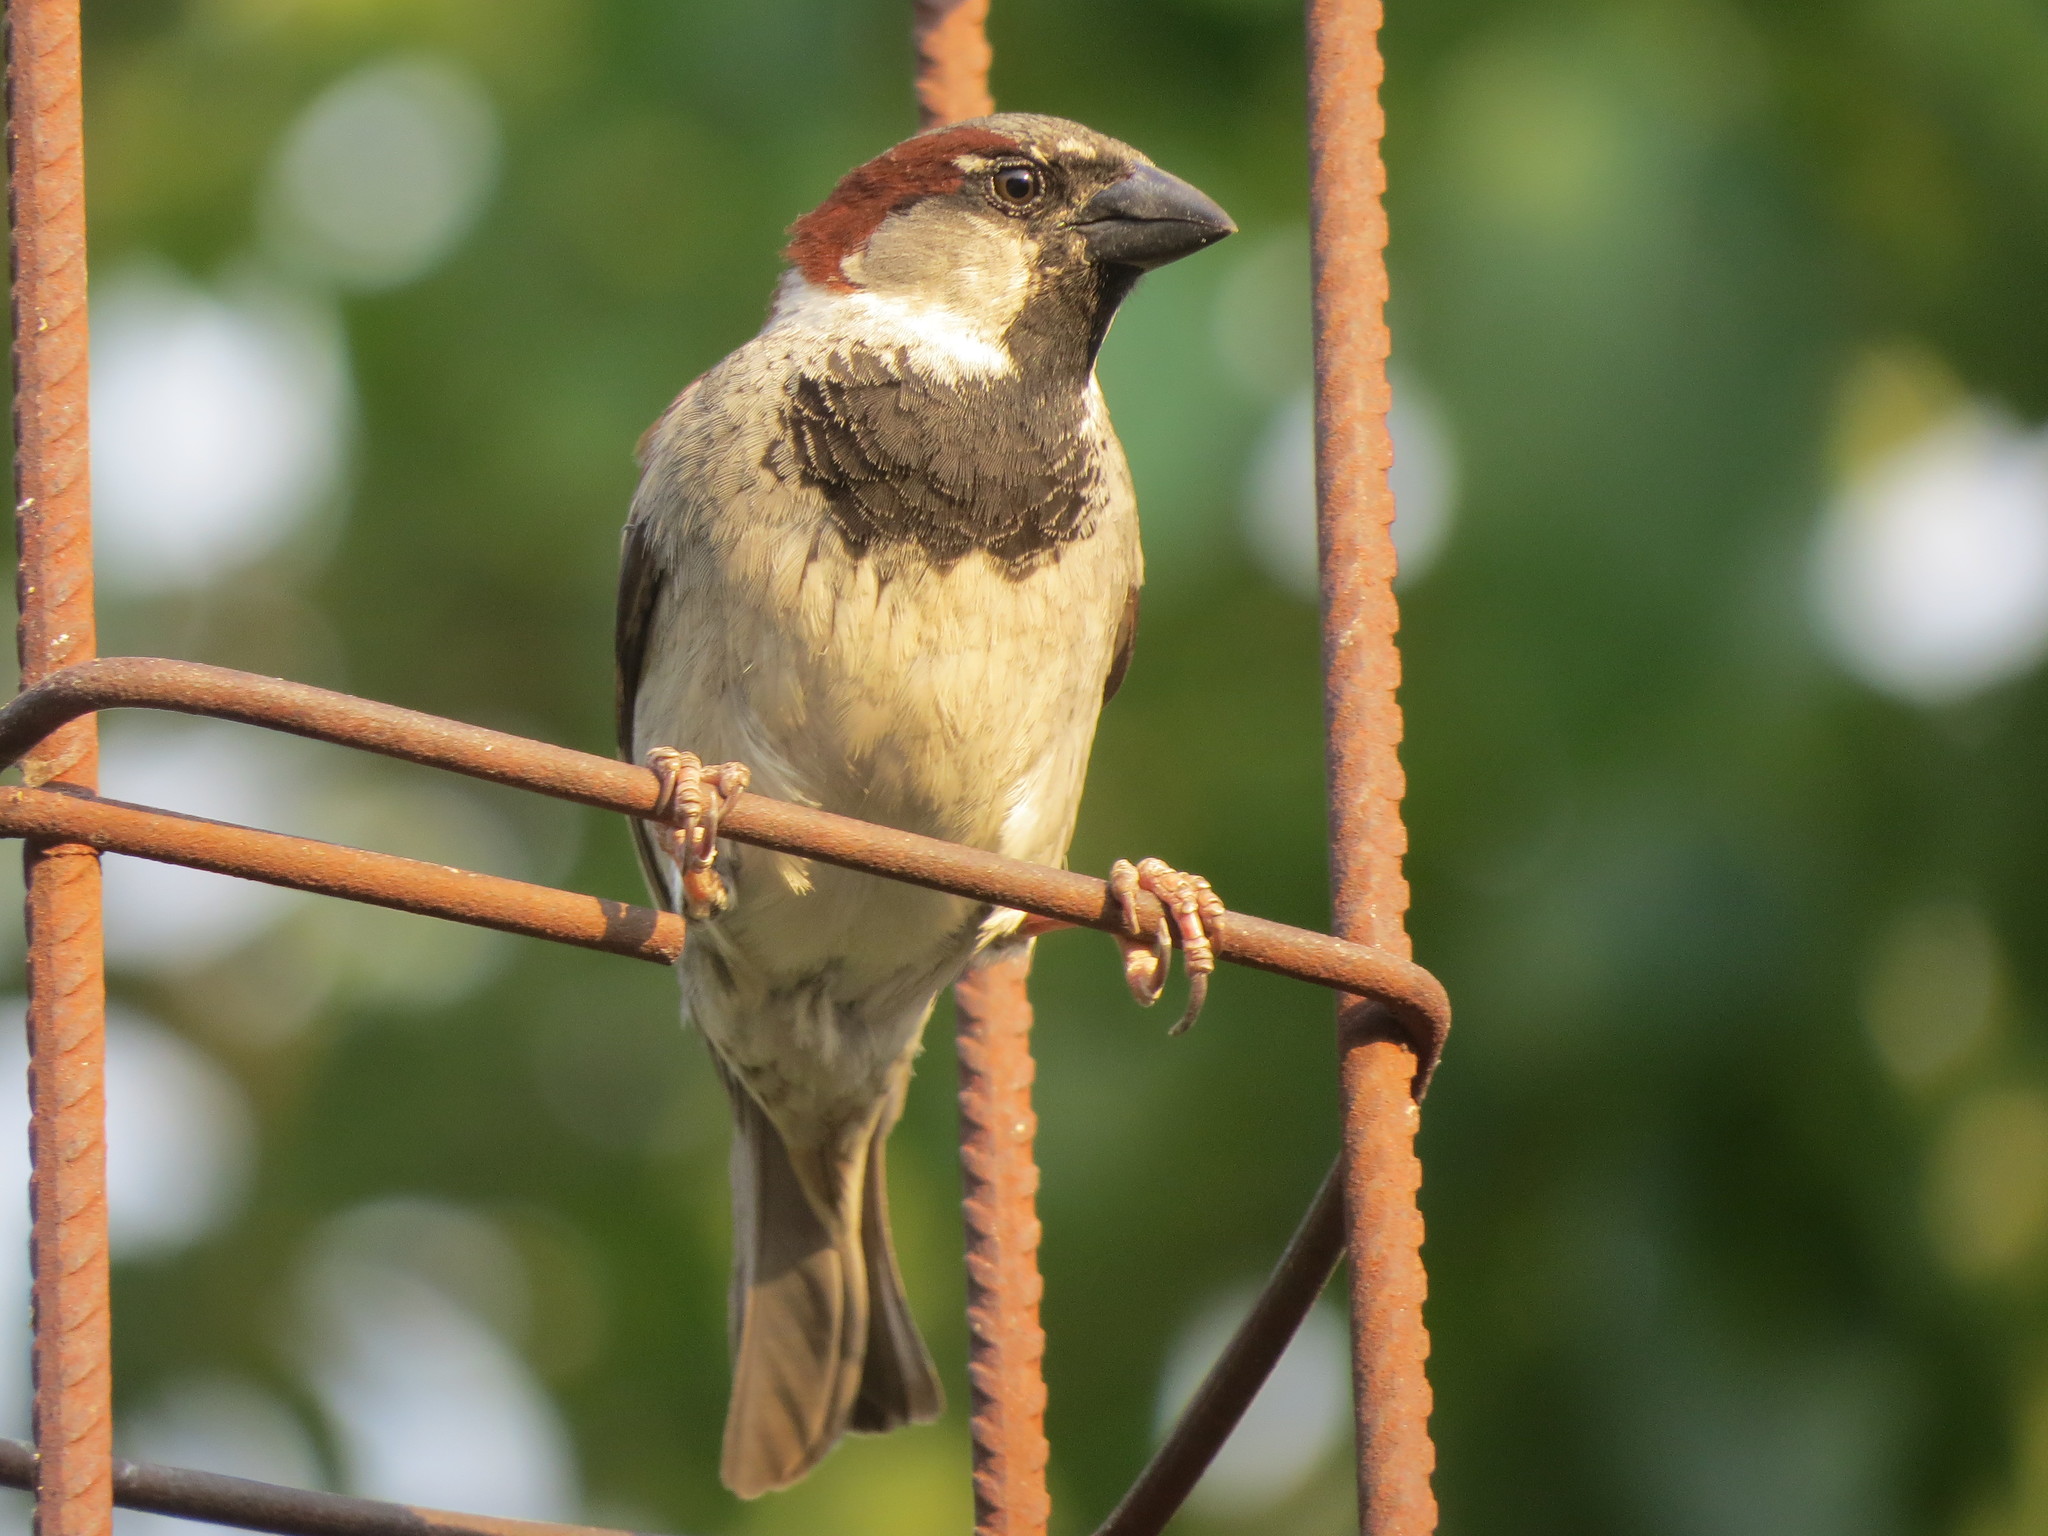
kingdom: Animalia
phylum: Chordata
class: Aves
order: Passeriformes
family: Passeridae
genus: Passer
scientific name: Passer domesticus
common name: House sparrow
